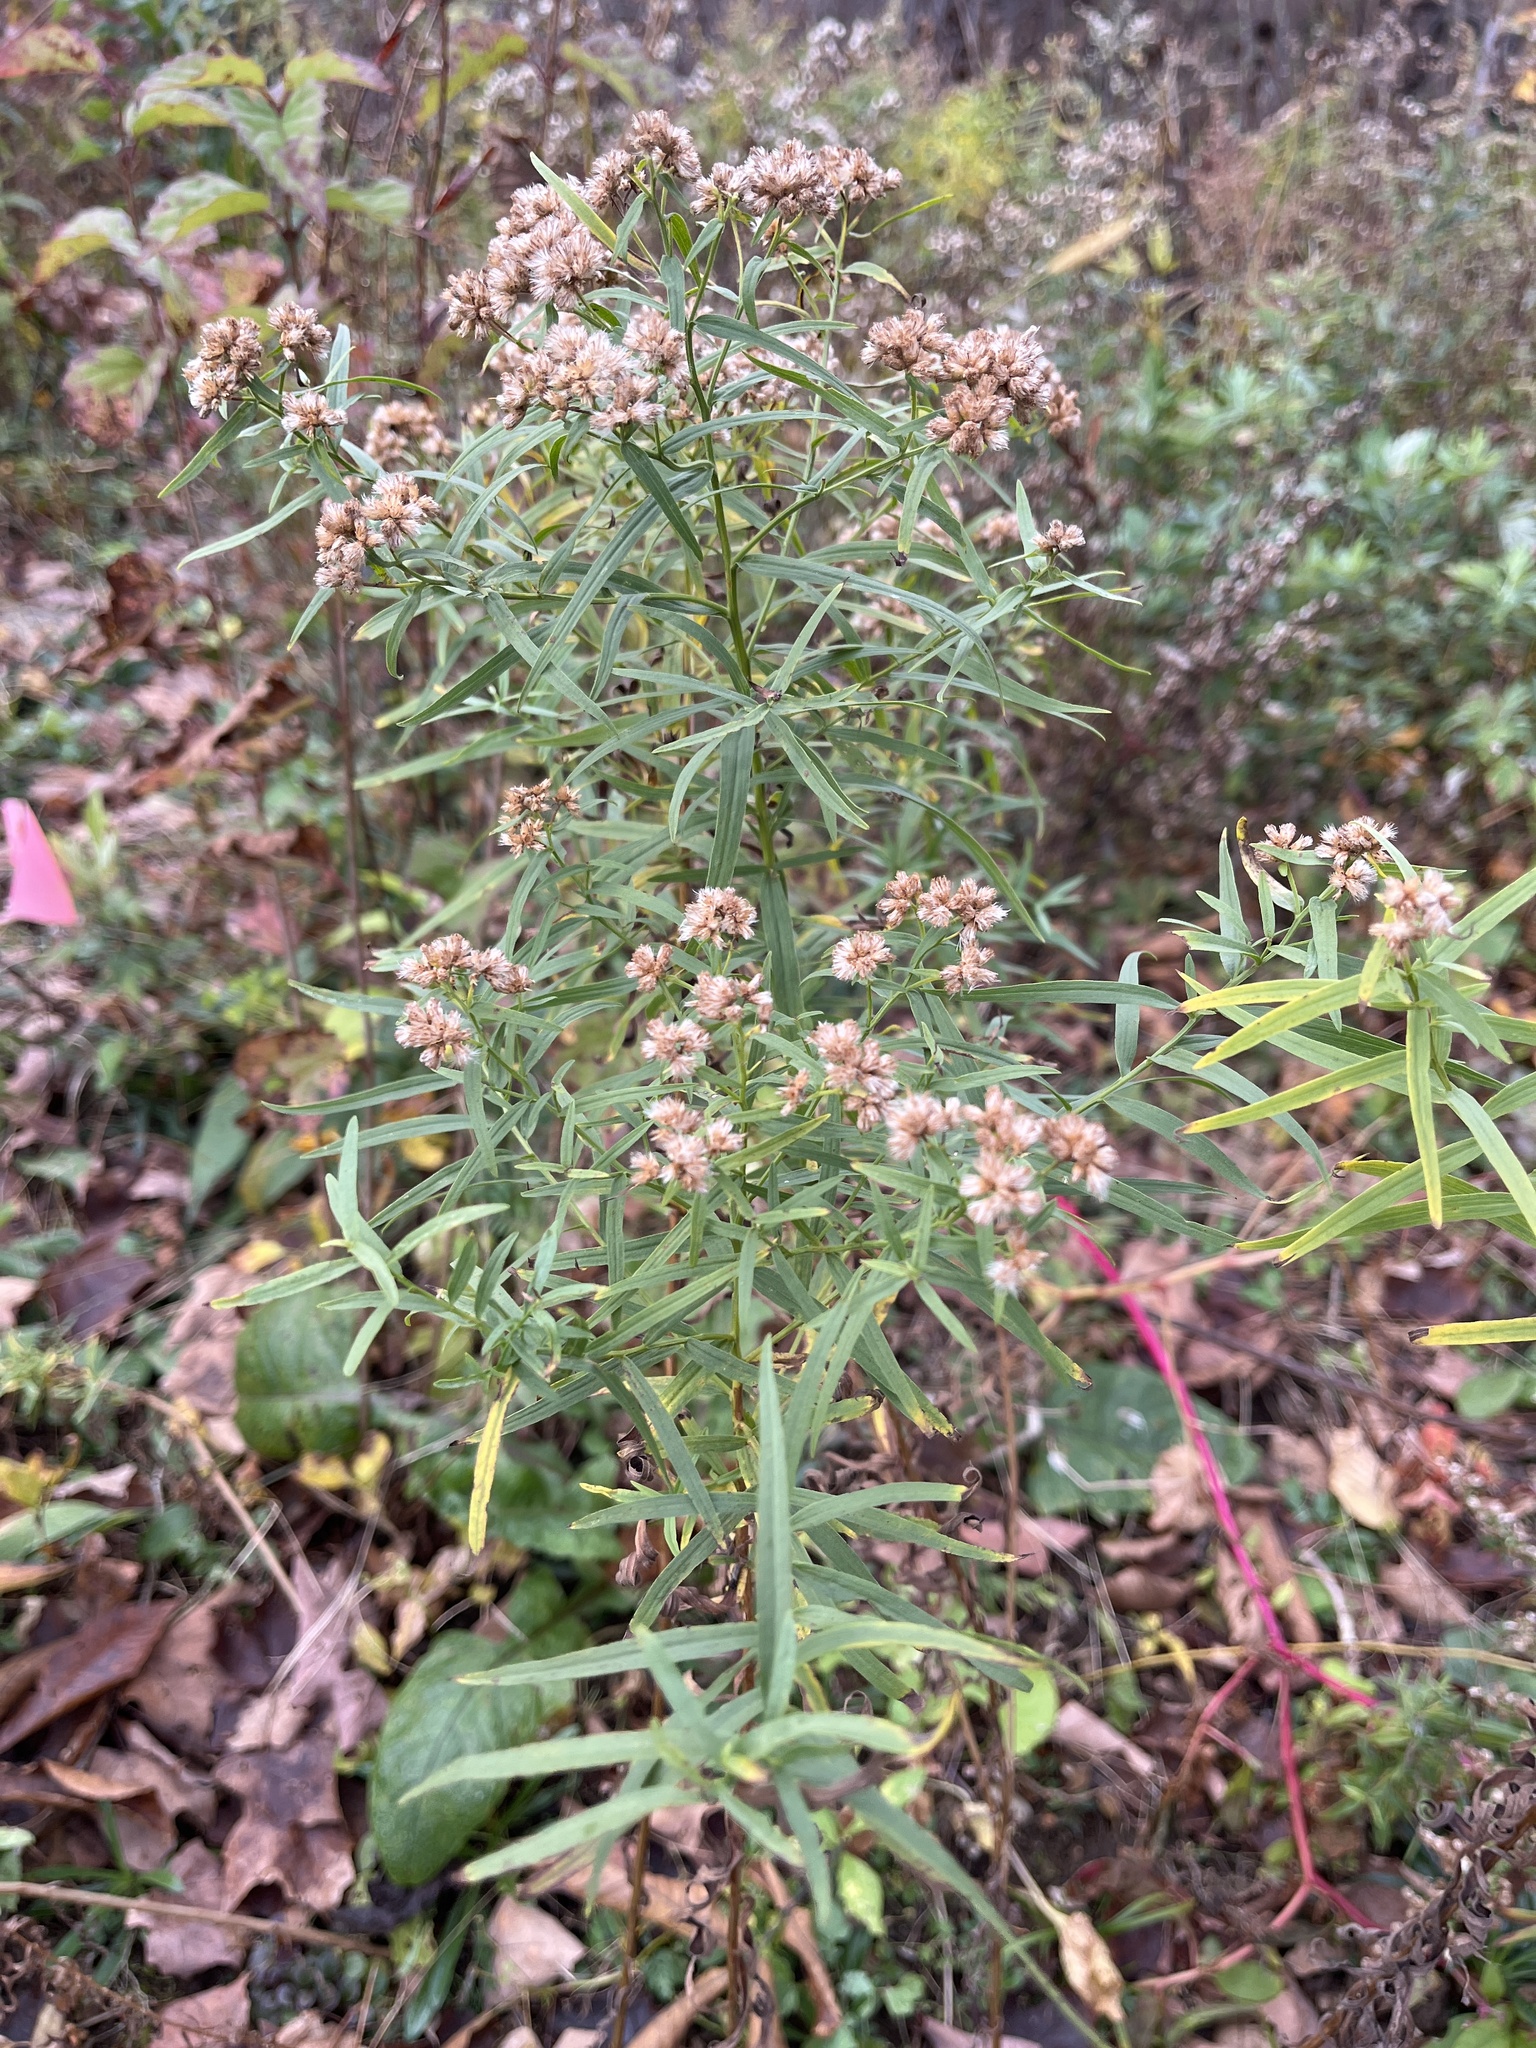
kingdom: Plantae
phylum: Tracheophyta
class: Magnoliopsida
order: Asterales
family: Asteraceae
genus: Euthamia
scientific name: Euthamia graminifolia
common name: Common goldentop
